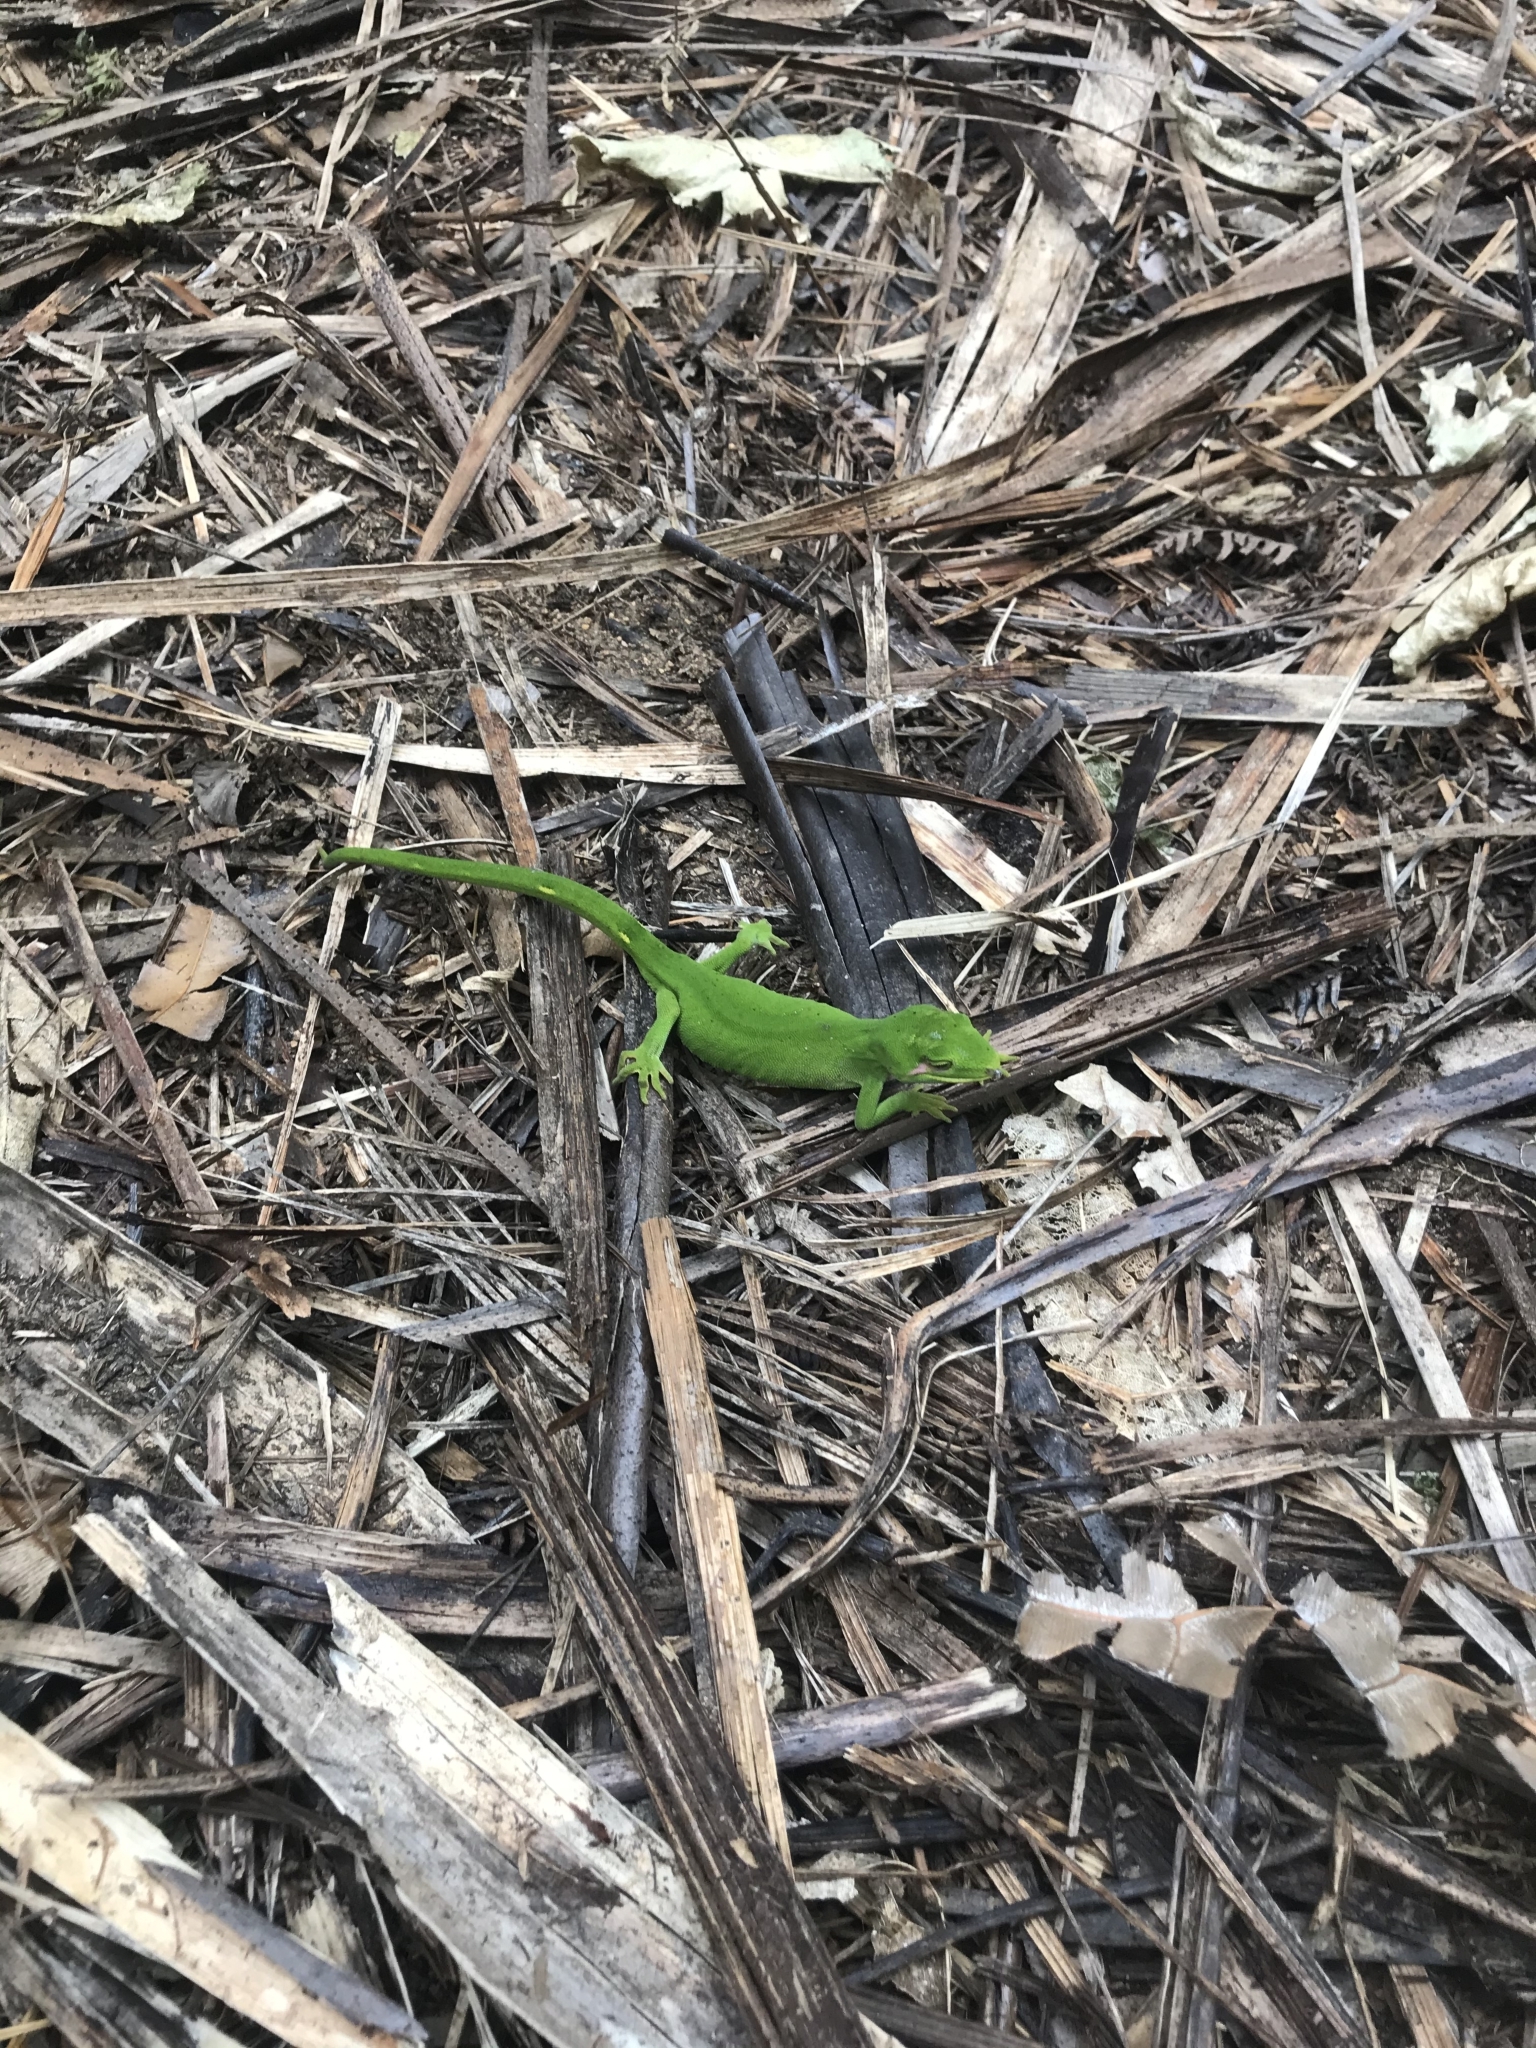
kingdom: Animalia
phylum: Chordata
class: Squamata
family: Diplodactylidae
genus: Naultinus
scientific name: Naultinus elegans
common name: Auckland green gecko
